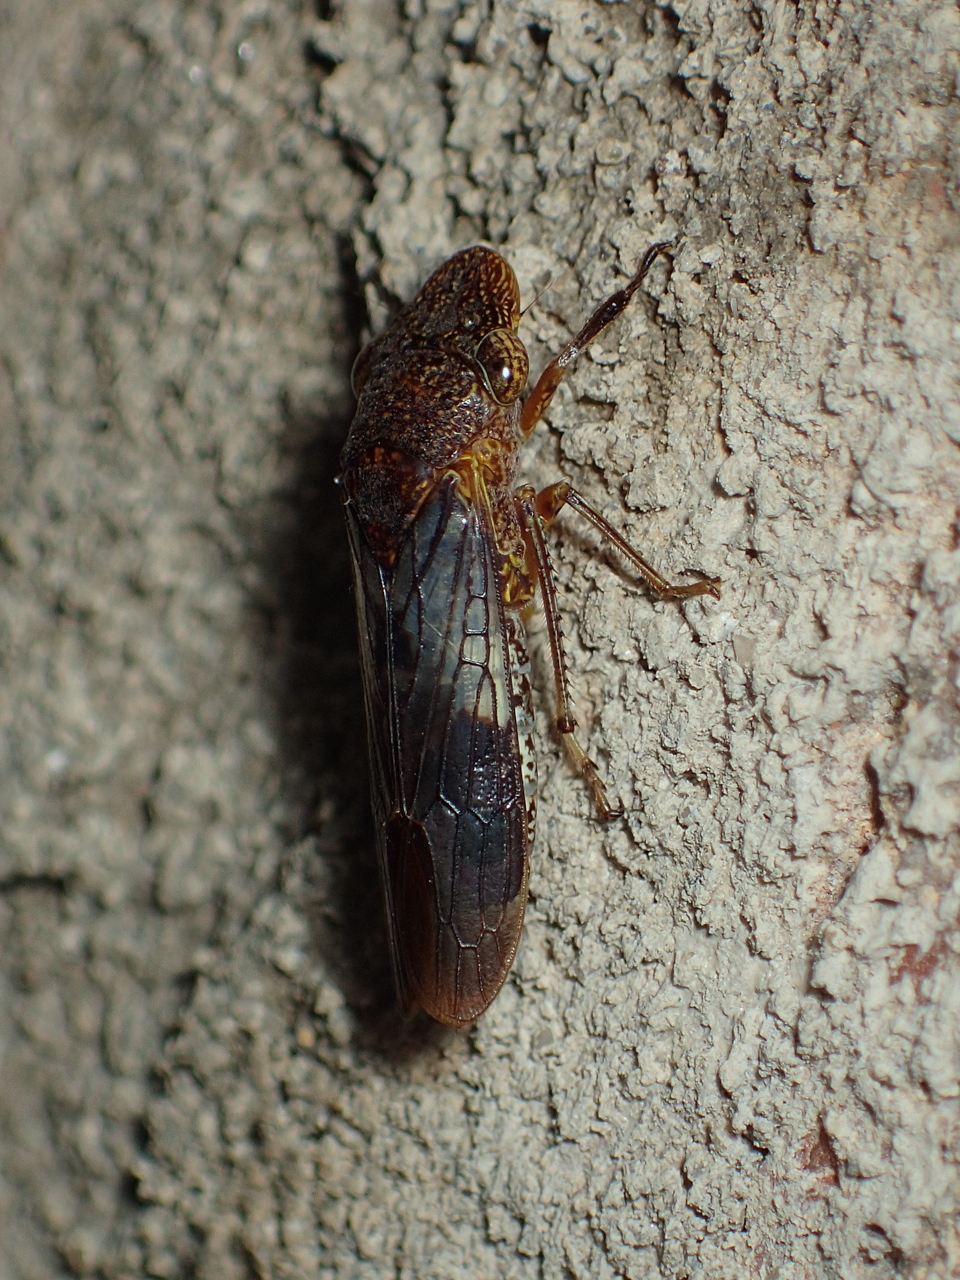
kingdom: Animalia
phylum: Arthropoda
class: Insecta
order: Hemiptera
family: Cicadellidae
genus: Homalodisca
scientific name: Homalodisca vitripennis
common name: Glassy-winged sharpshooter
